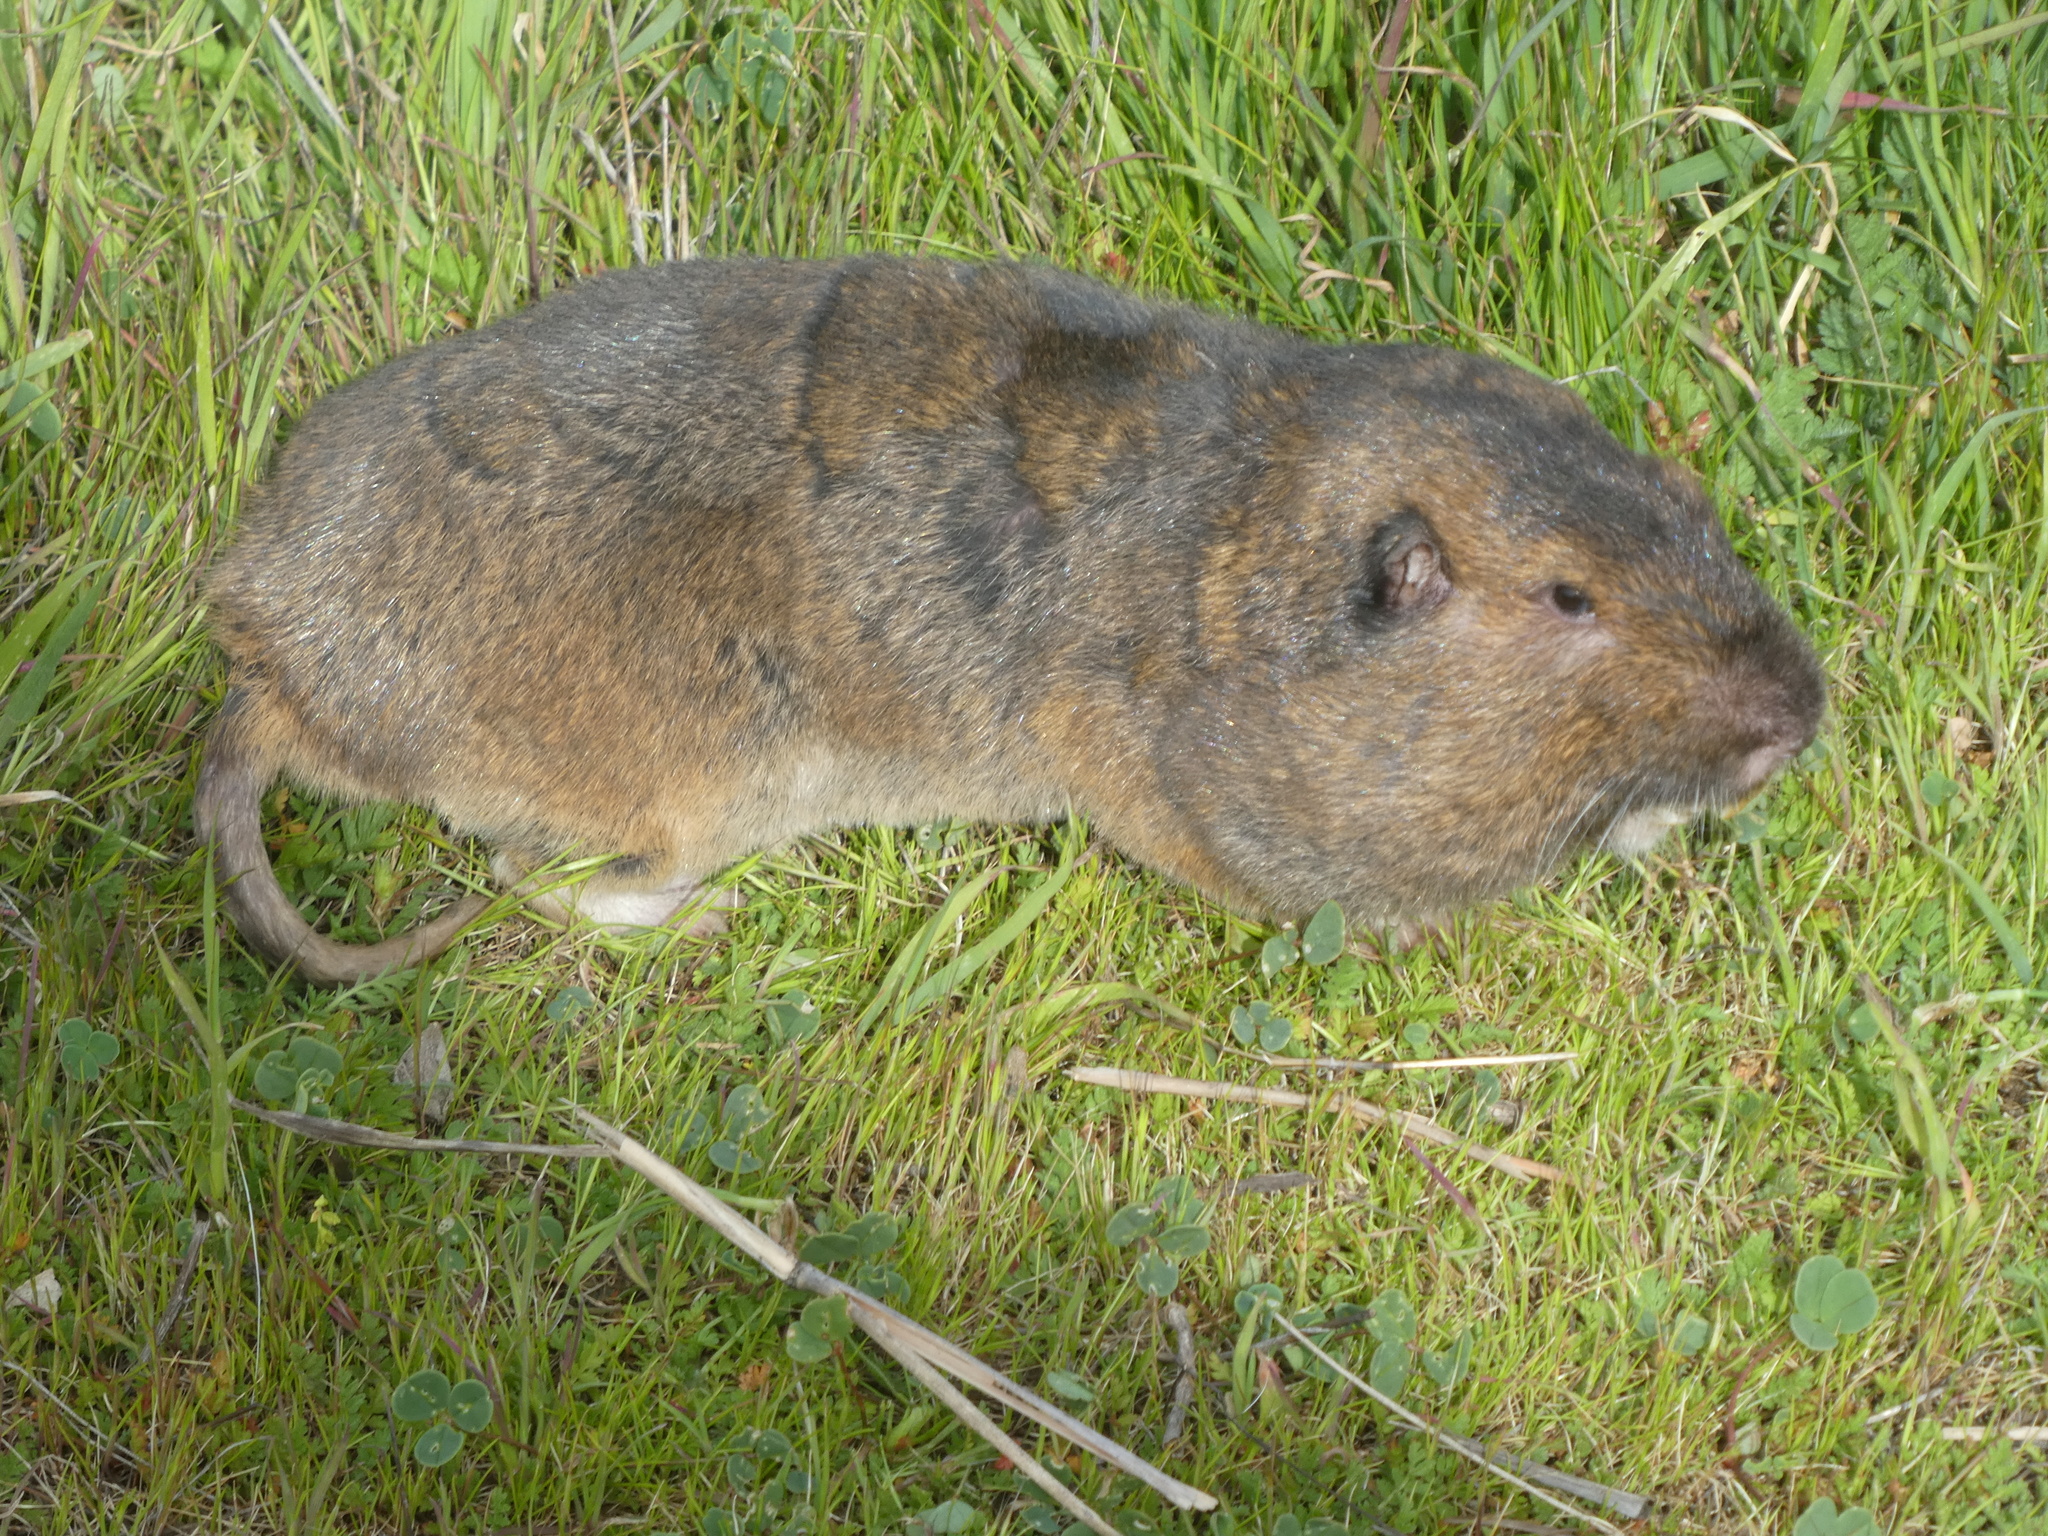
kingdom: Animalia
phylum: Chordata
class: Mammalia
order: Rodentia
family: Geomyidae
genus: Thomomys
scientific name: Thomomys bottae
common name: Botta's pocket gopher
